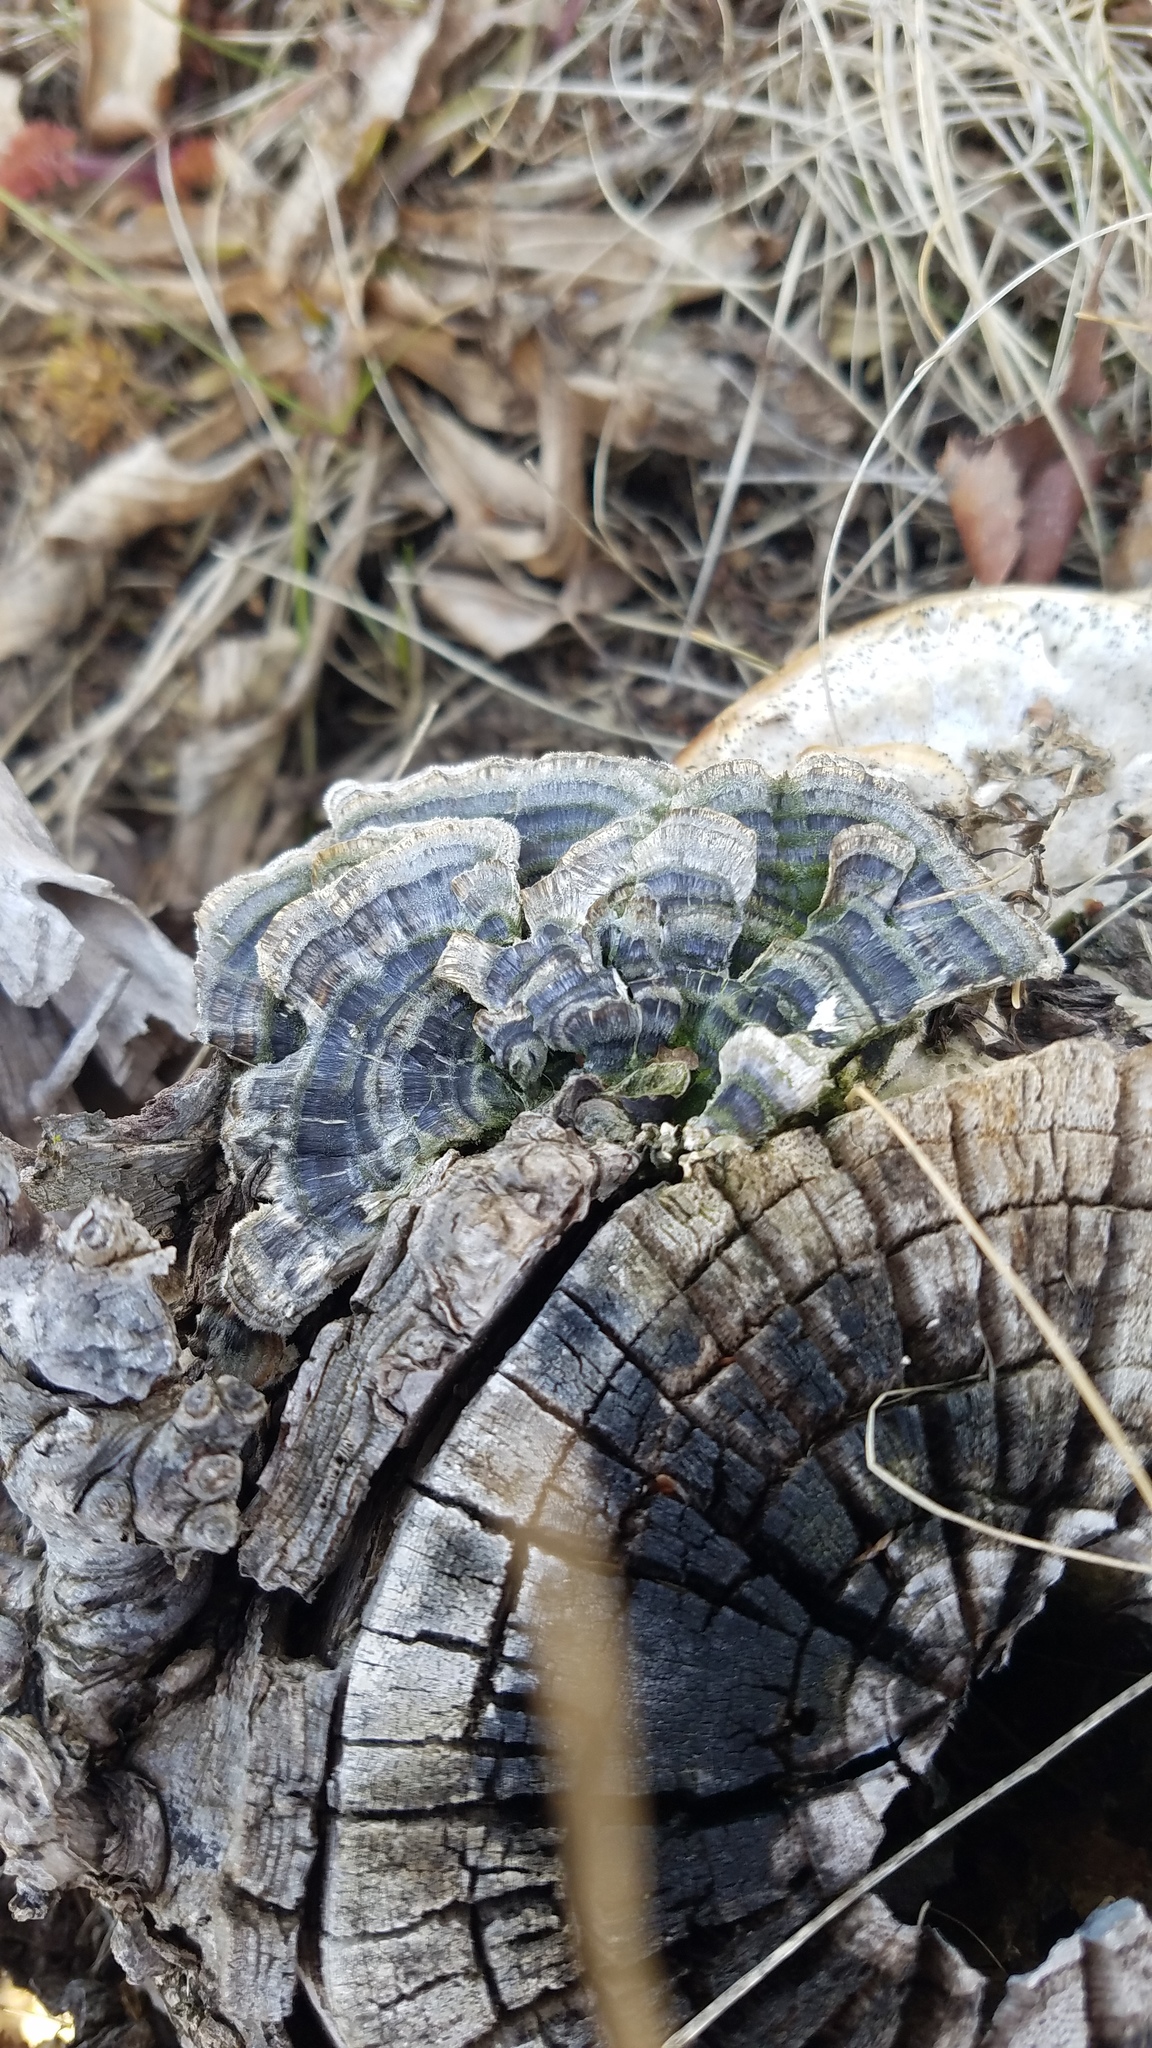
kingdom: Fungi
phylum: Basidiomycota
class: Agaricomycetes
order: Polyporales
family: Polyporaceae
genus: Trametes
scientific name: Trametes versicolor
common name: Turkeytail
